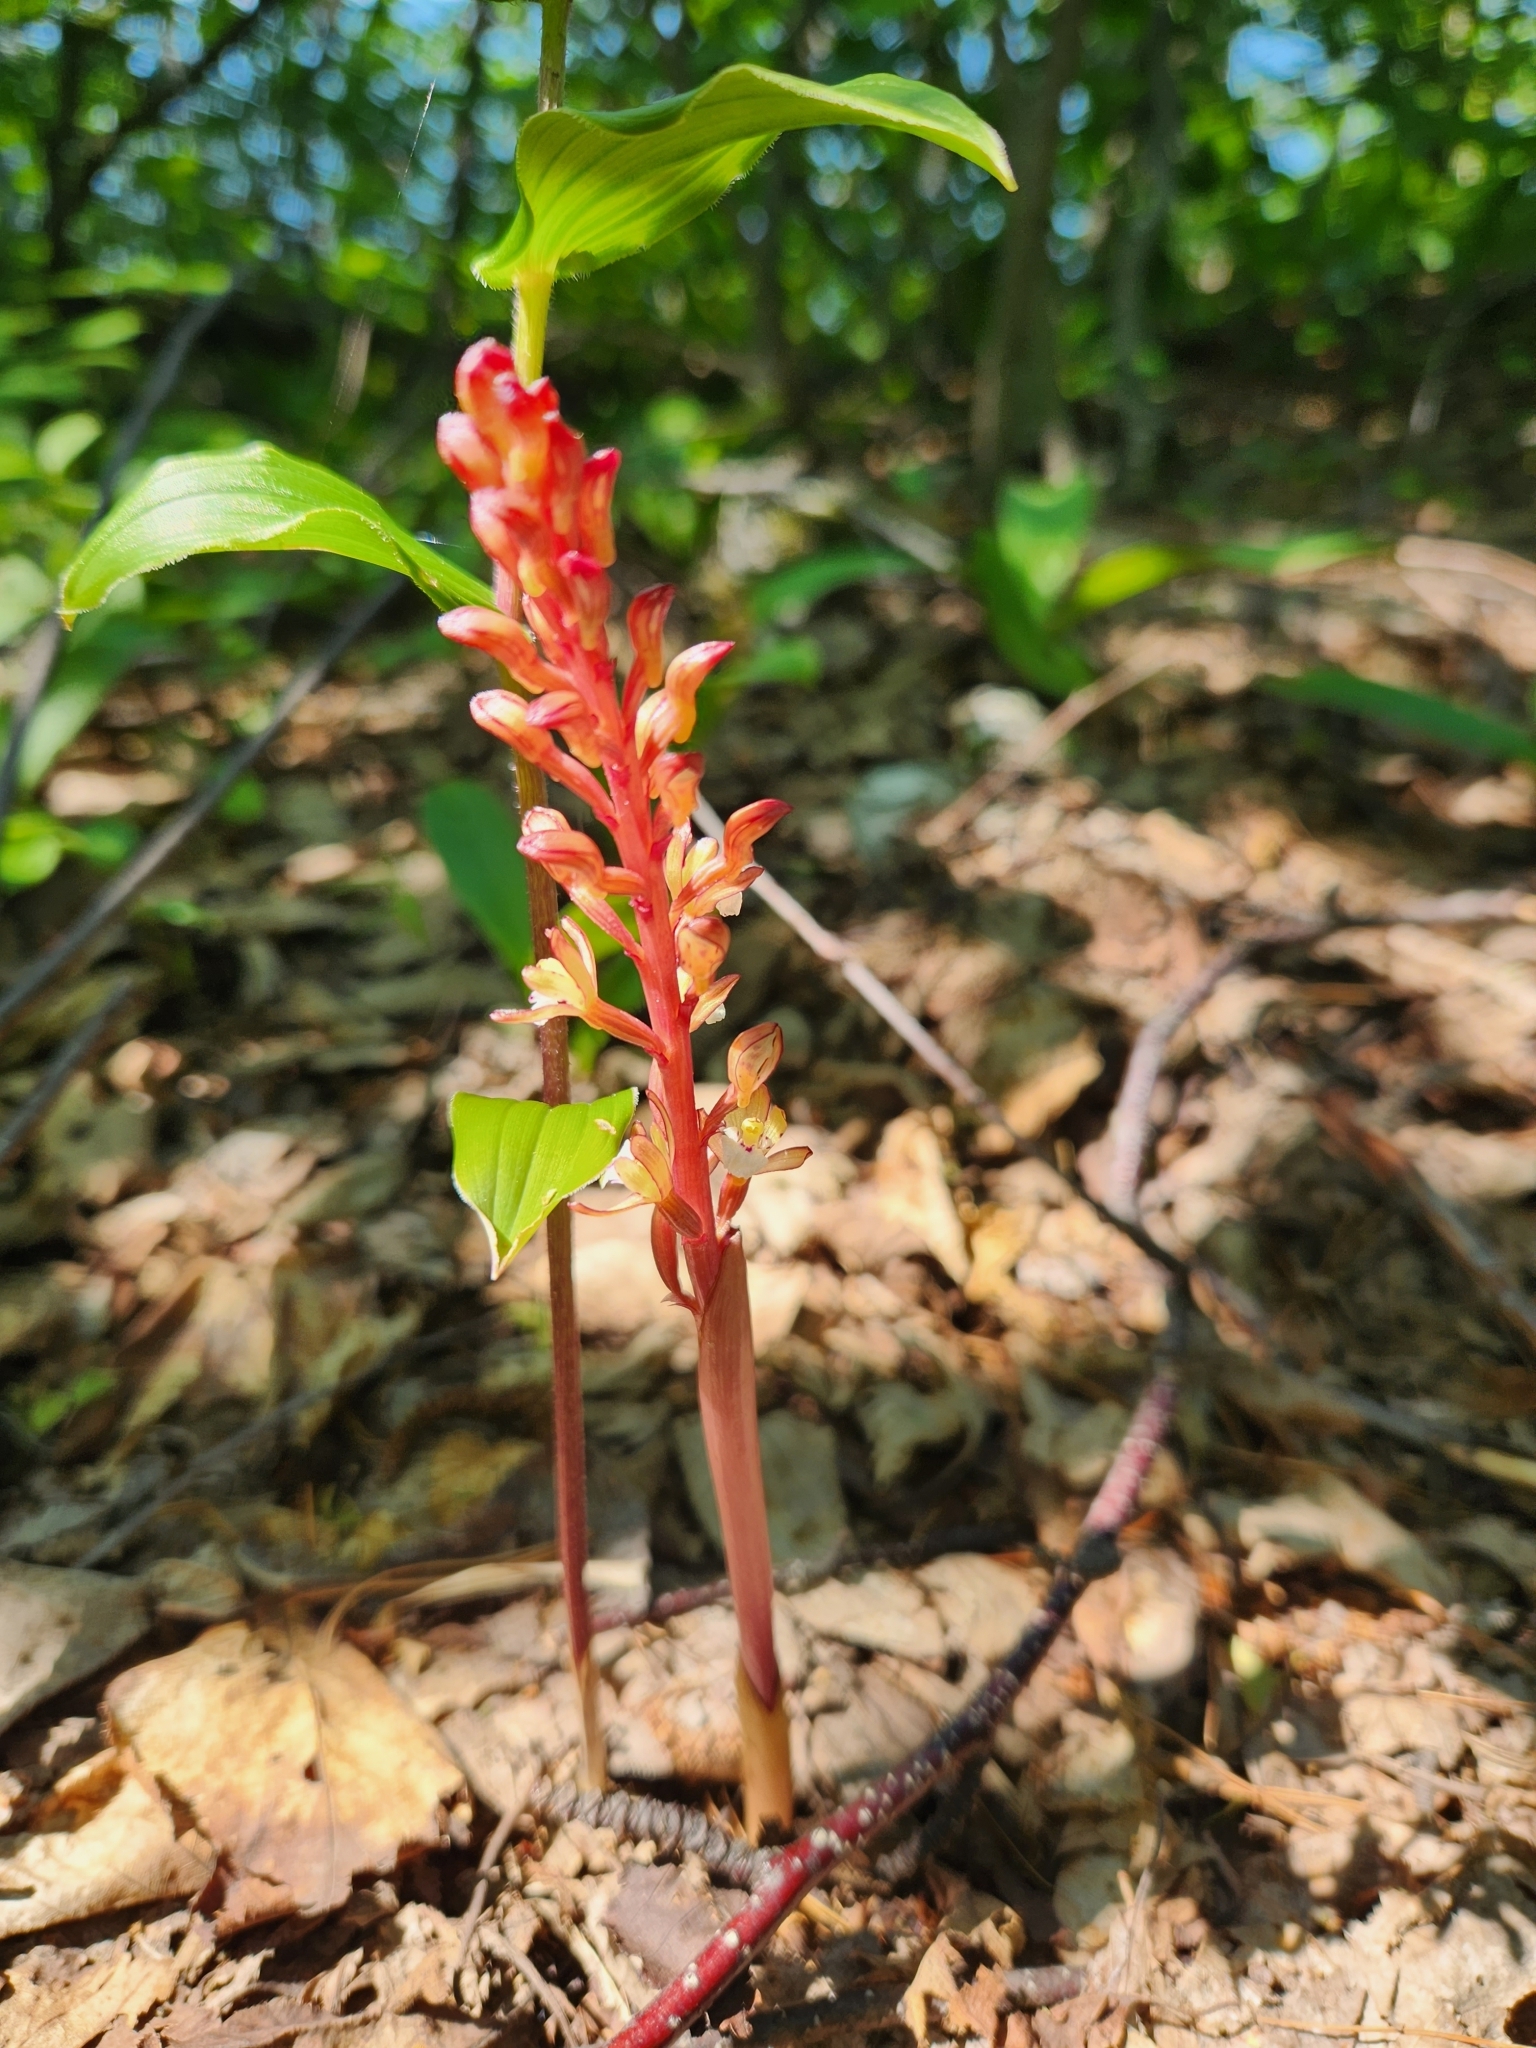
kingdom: Plantae
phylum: Tracheophyta
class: Liliopsida
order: Asparagales
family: Orchidaceae
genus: Corallorhiza
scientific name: Corallorhiza maculata
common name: Spotted coralroot
